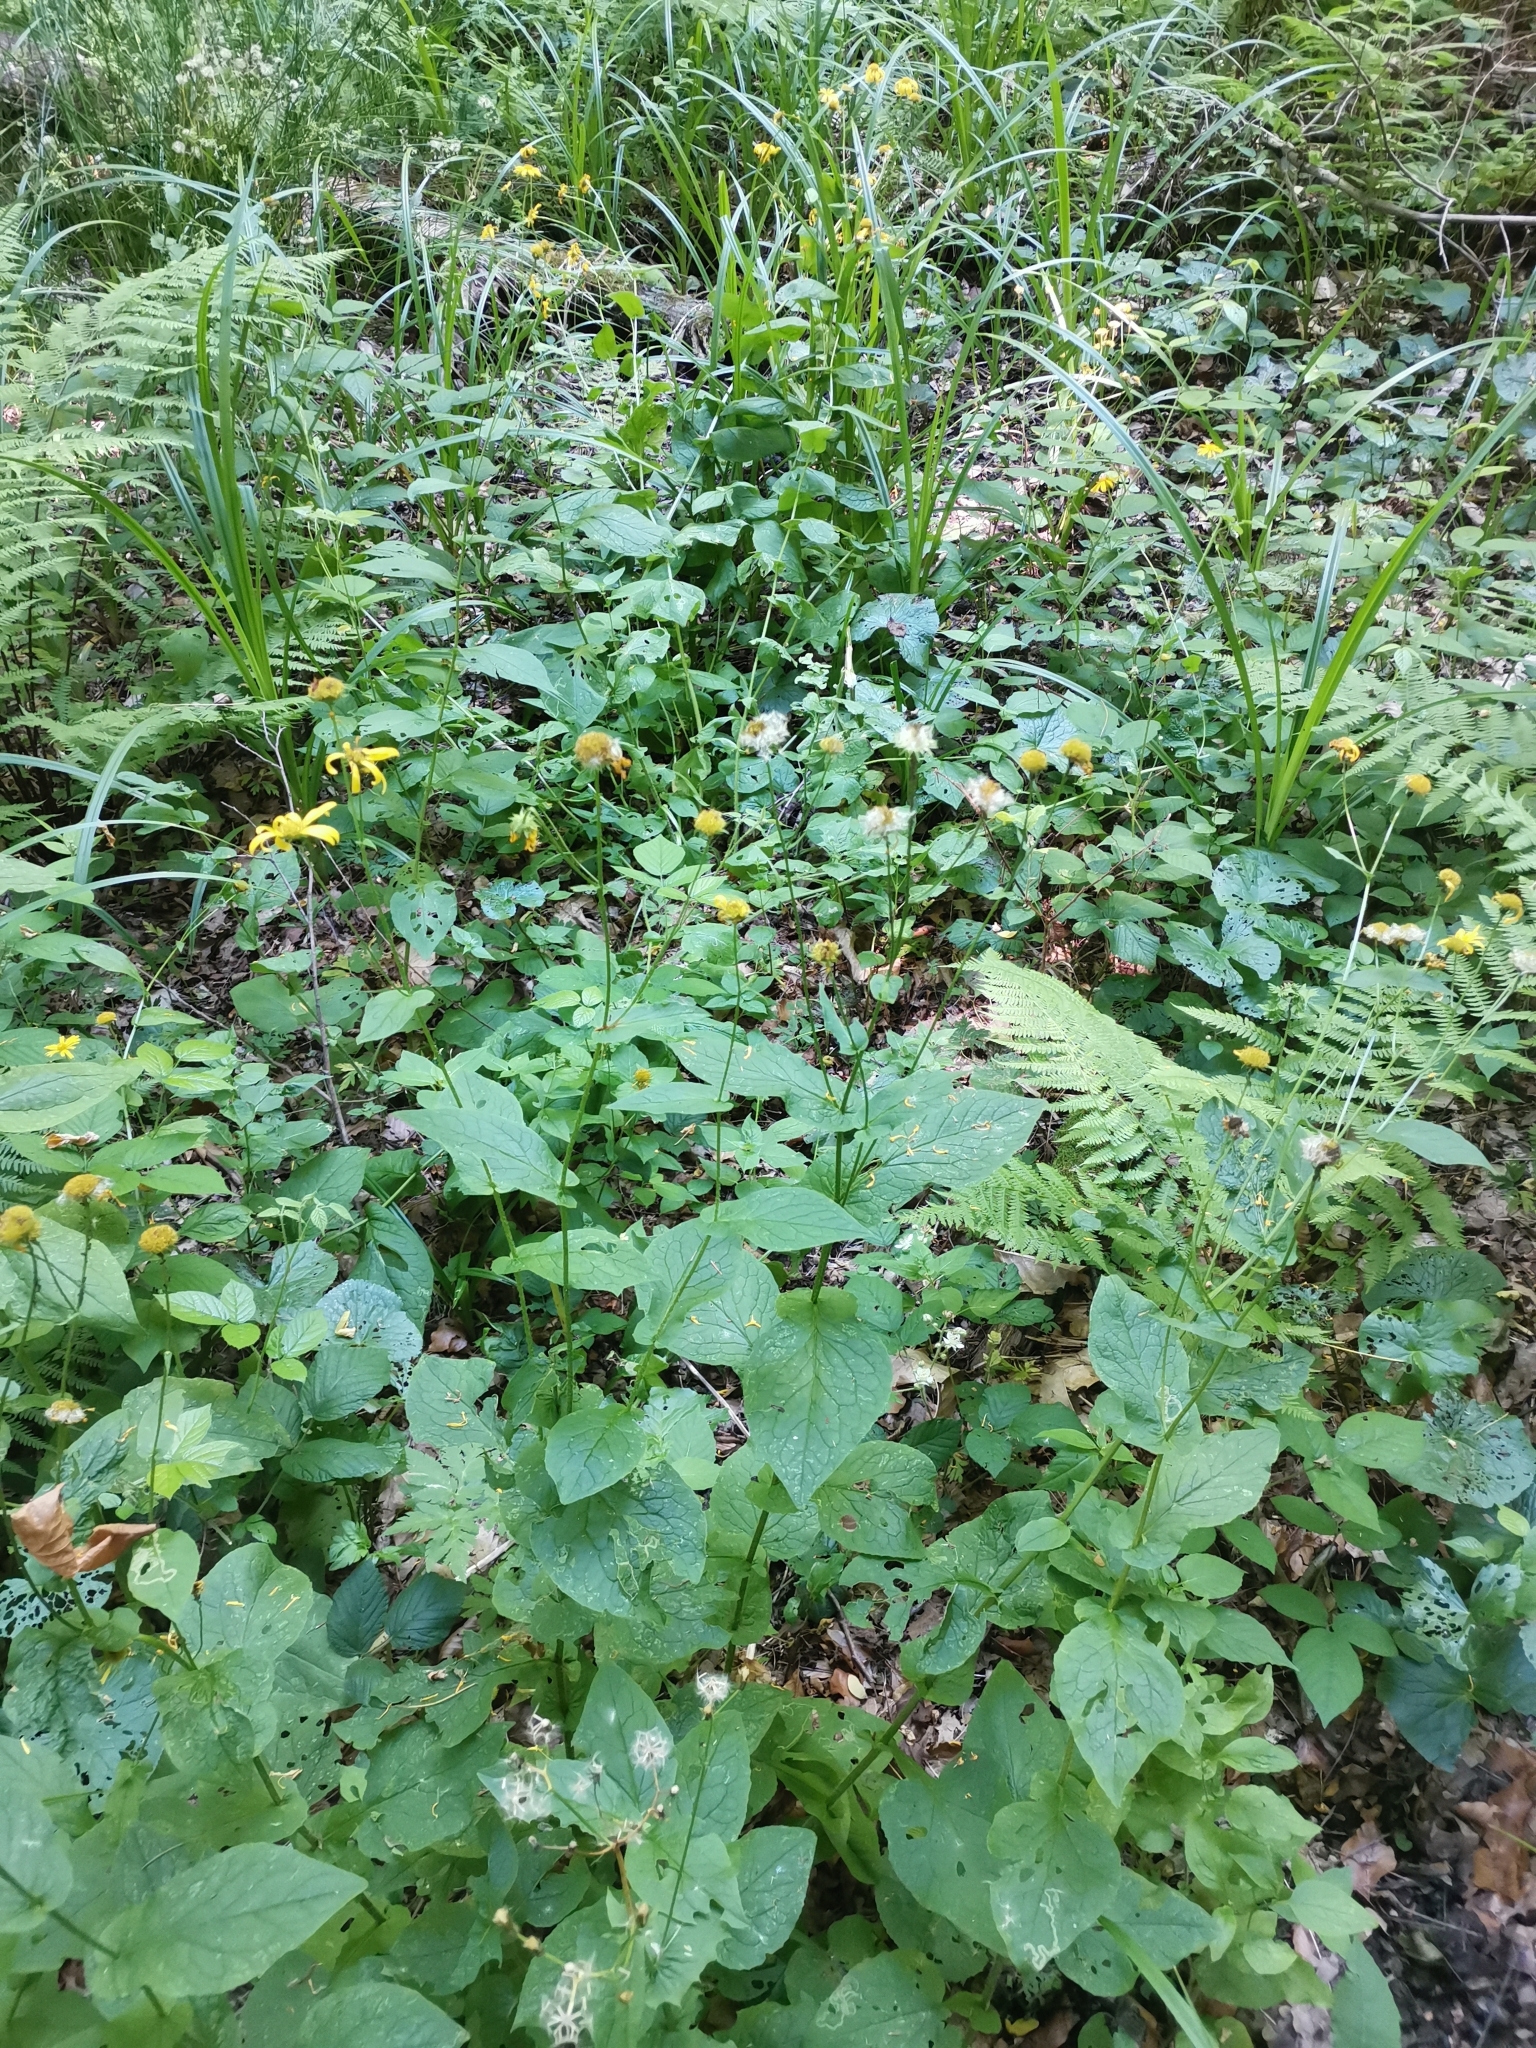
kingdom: Plantae
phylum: Tracheophyta
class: Magnoliopsida
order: Asterales
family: Asteraceae
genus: Doronicum
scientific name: Doronicum austriacum
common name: Austrian leopard's-bane
